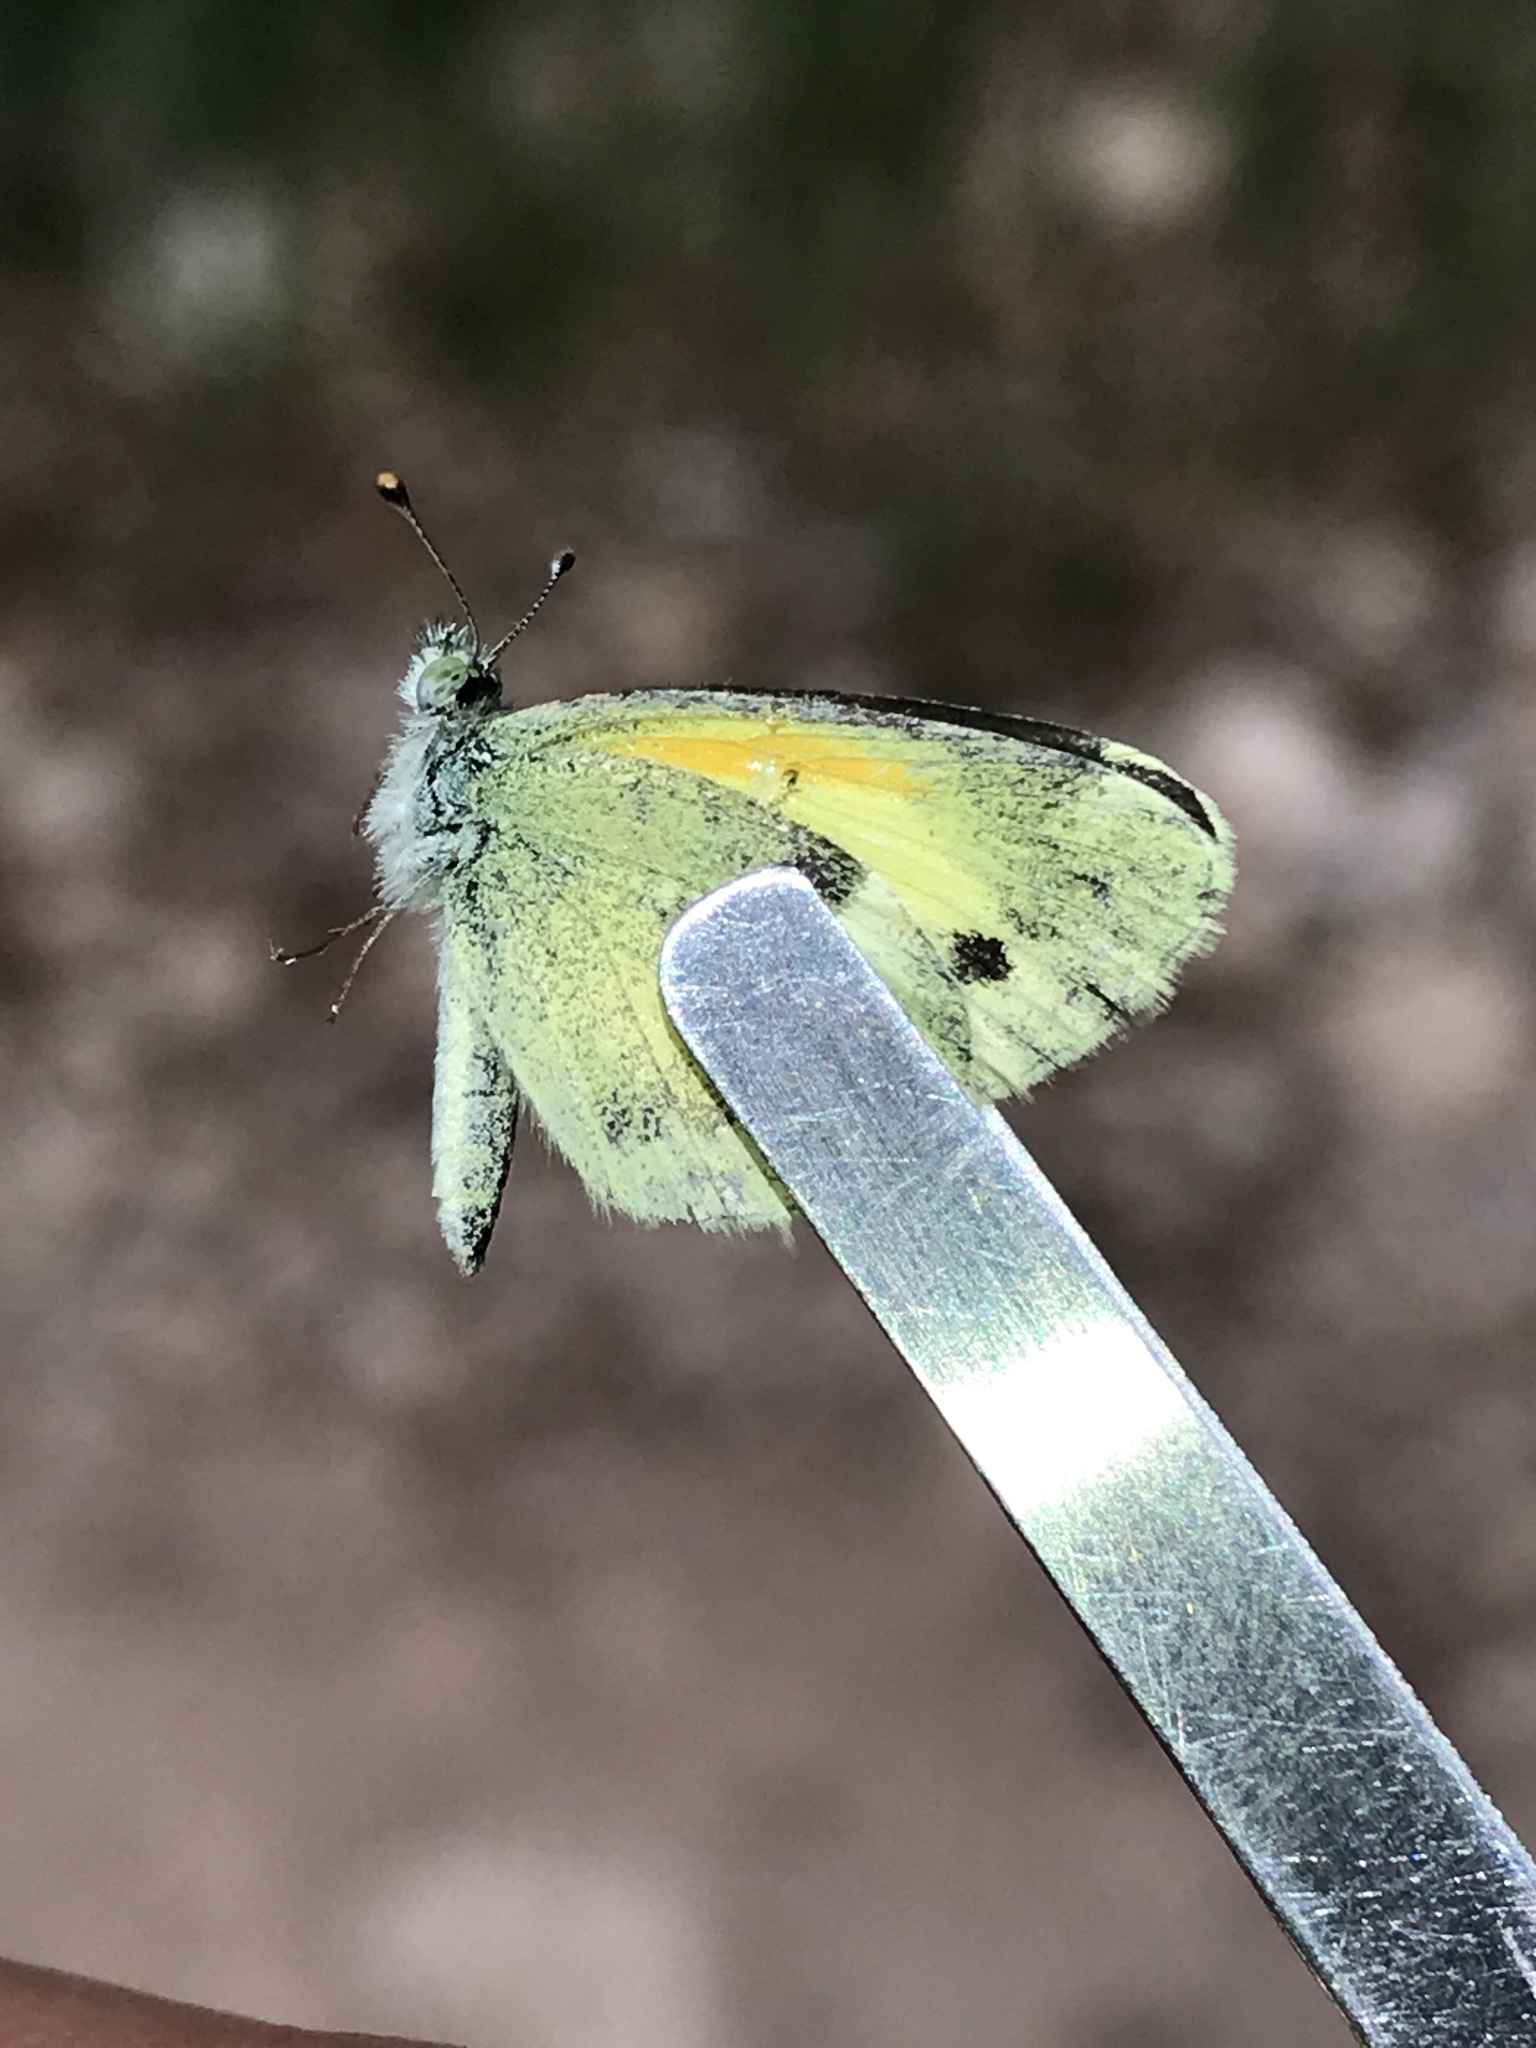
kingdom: Animalia
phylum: Arthropoda
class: Insecta
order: Lepidoptera
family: Pieridae
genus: Nathalis
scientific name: Nathalis iole
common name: Dainty sulphur
